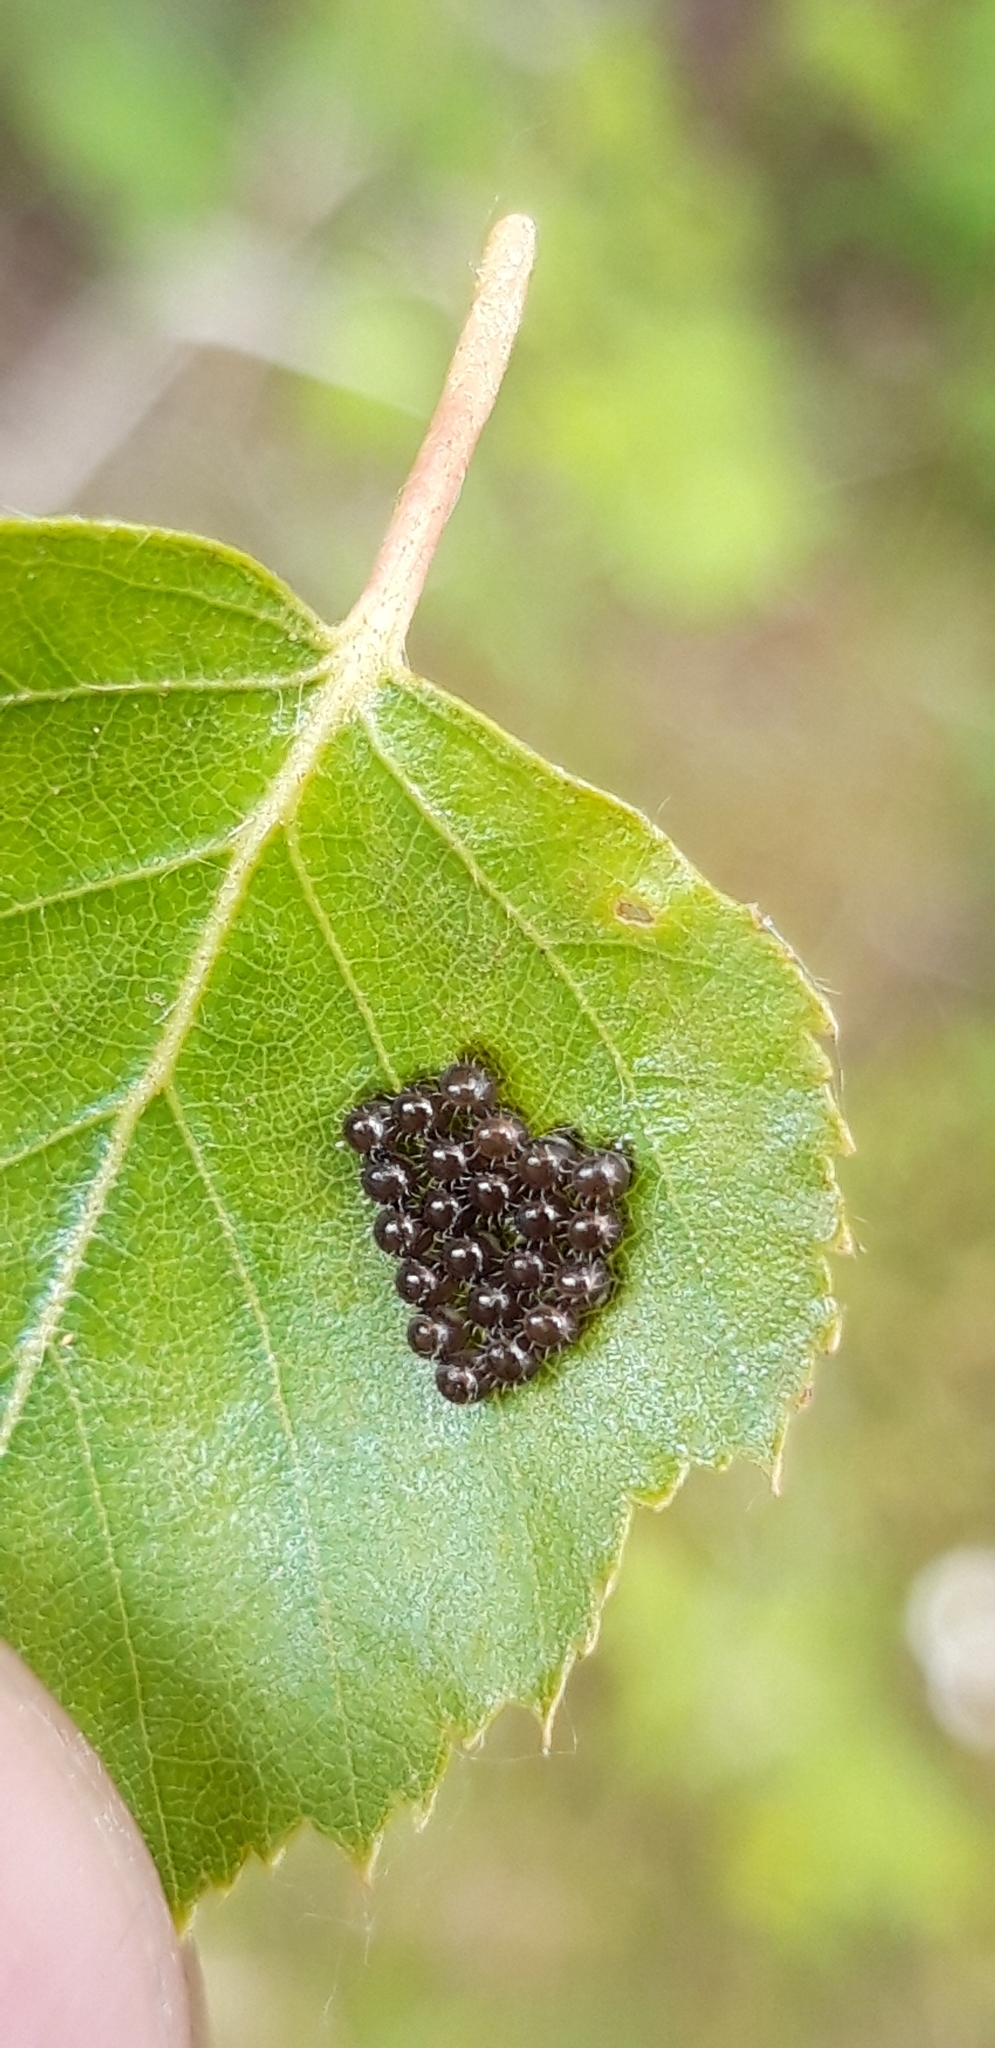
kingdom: Animalia
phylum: Arthropoda
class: Insecta
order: Hemiptera
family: Pentatomidae
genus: Arma
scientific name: Arma custos
